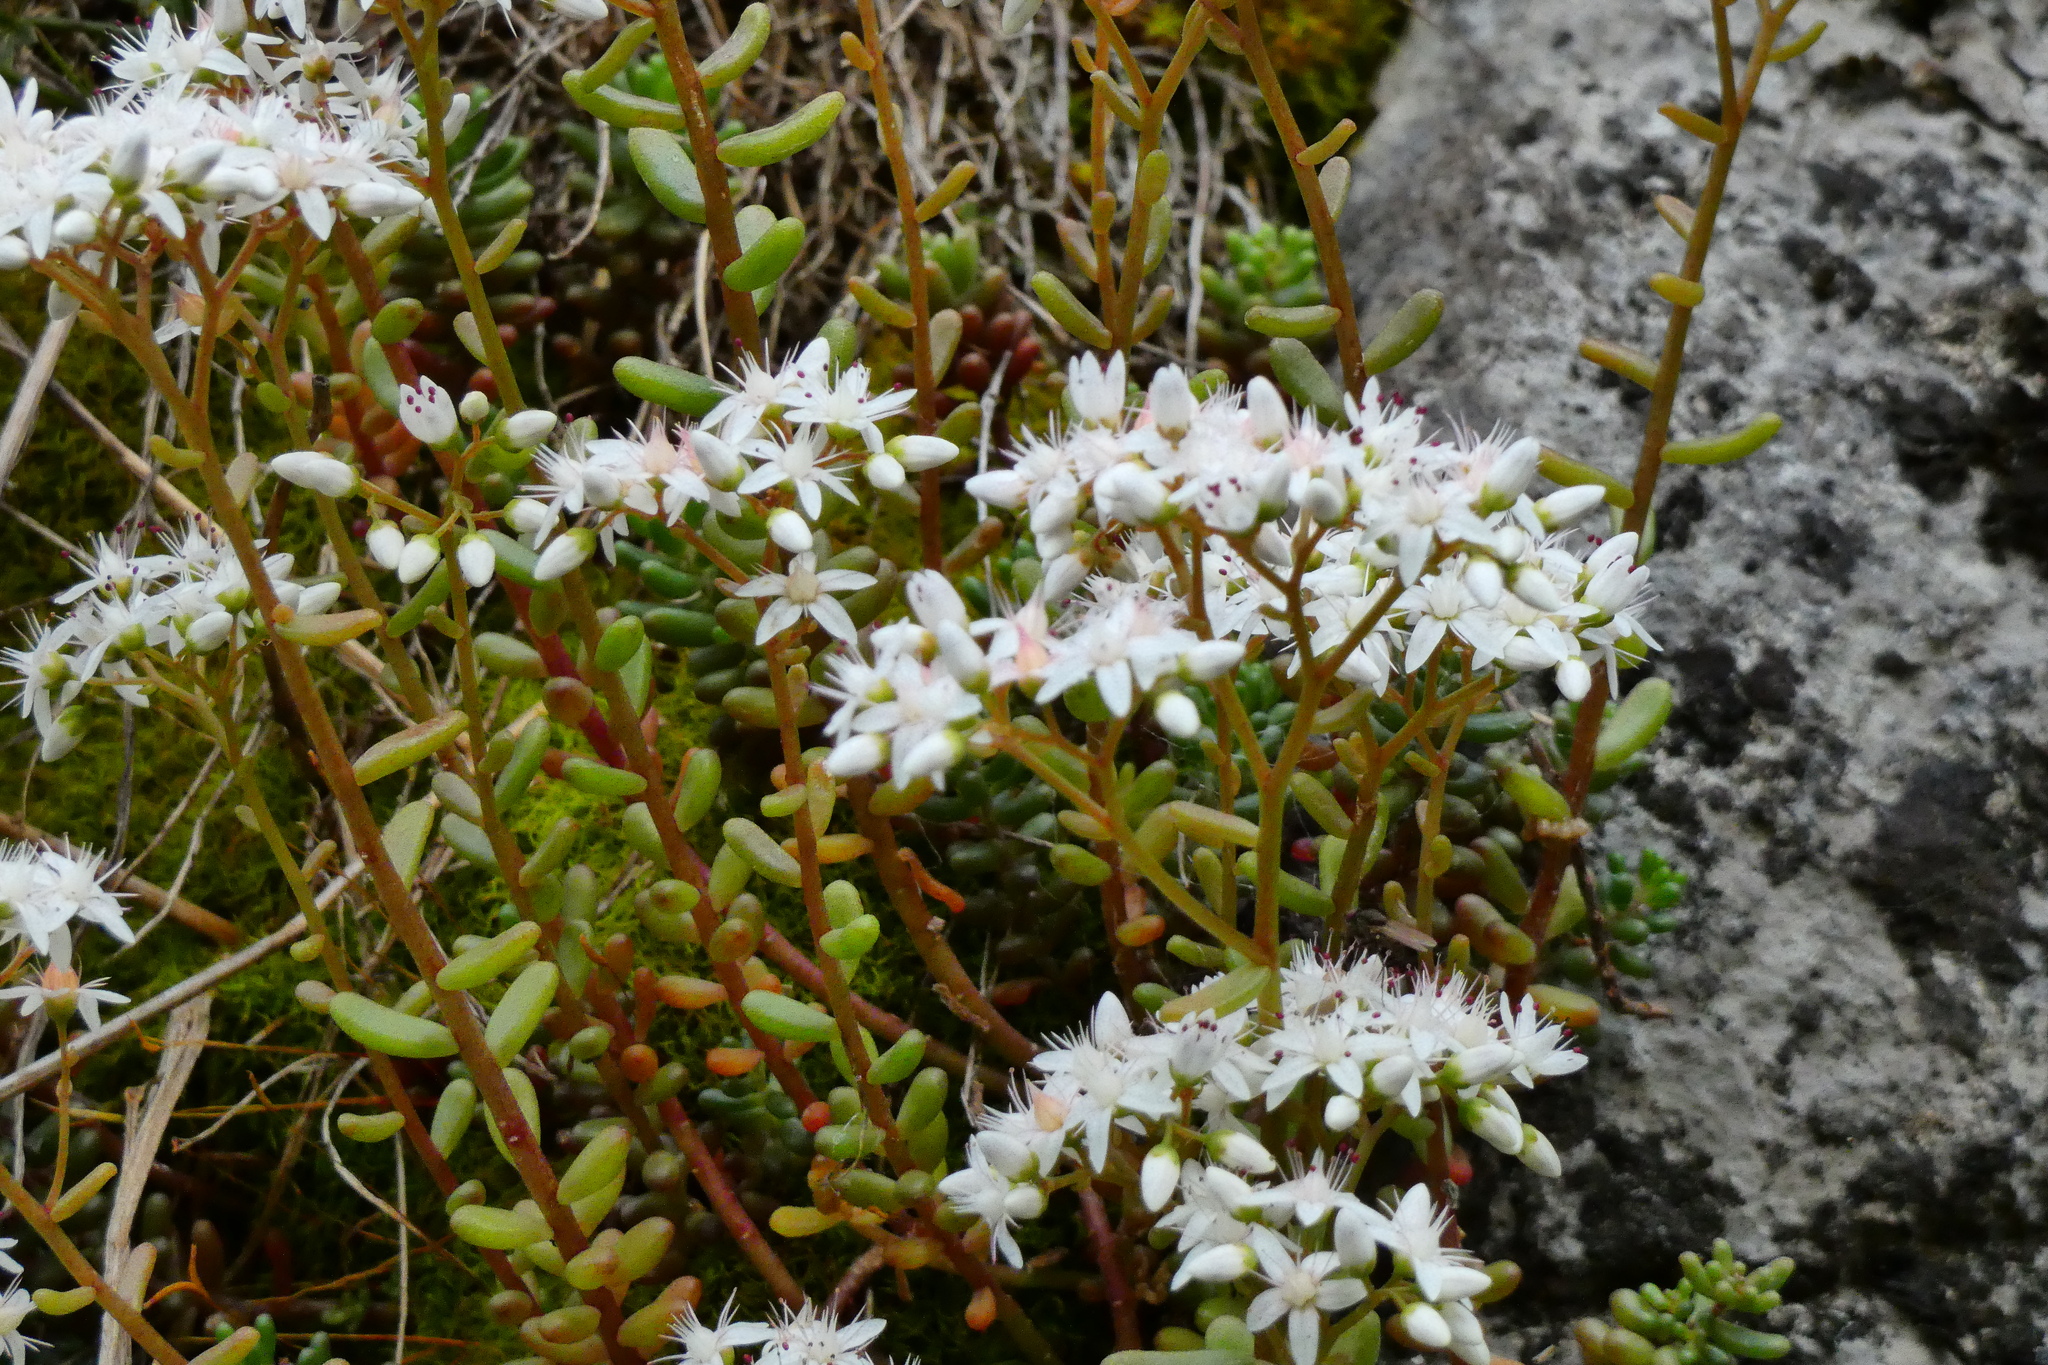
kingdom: Plantae
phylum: Tracheophyta
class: Magnoliopsida
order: Saxifragales
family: Crassulaceae
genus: Sedum
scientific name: Sedum album
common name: White stonecrop
